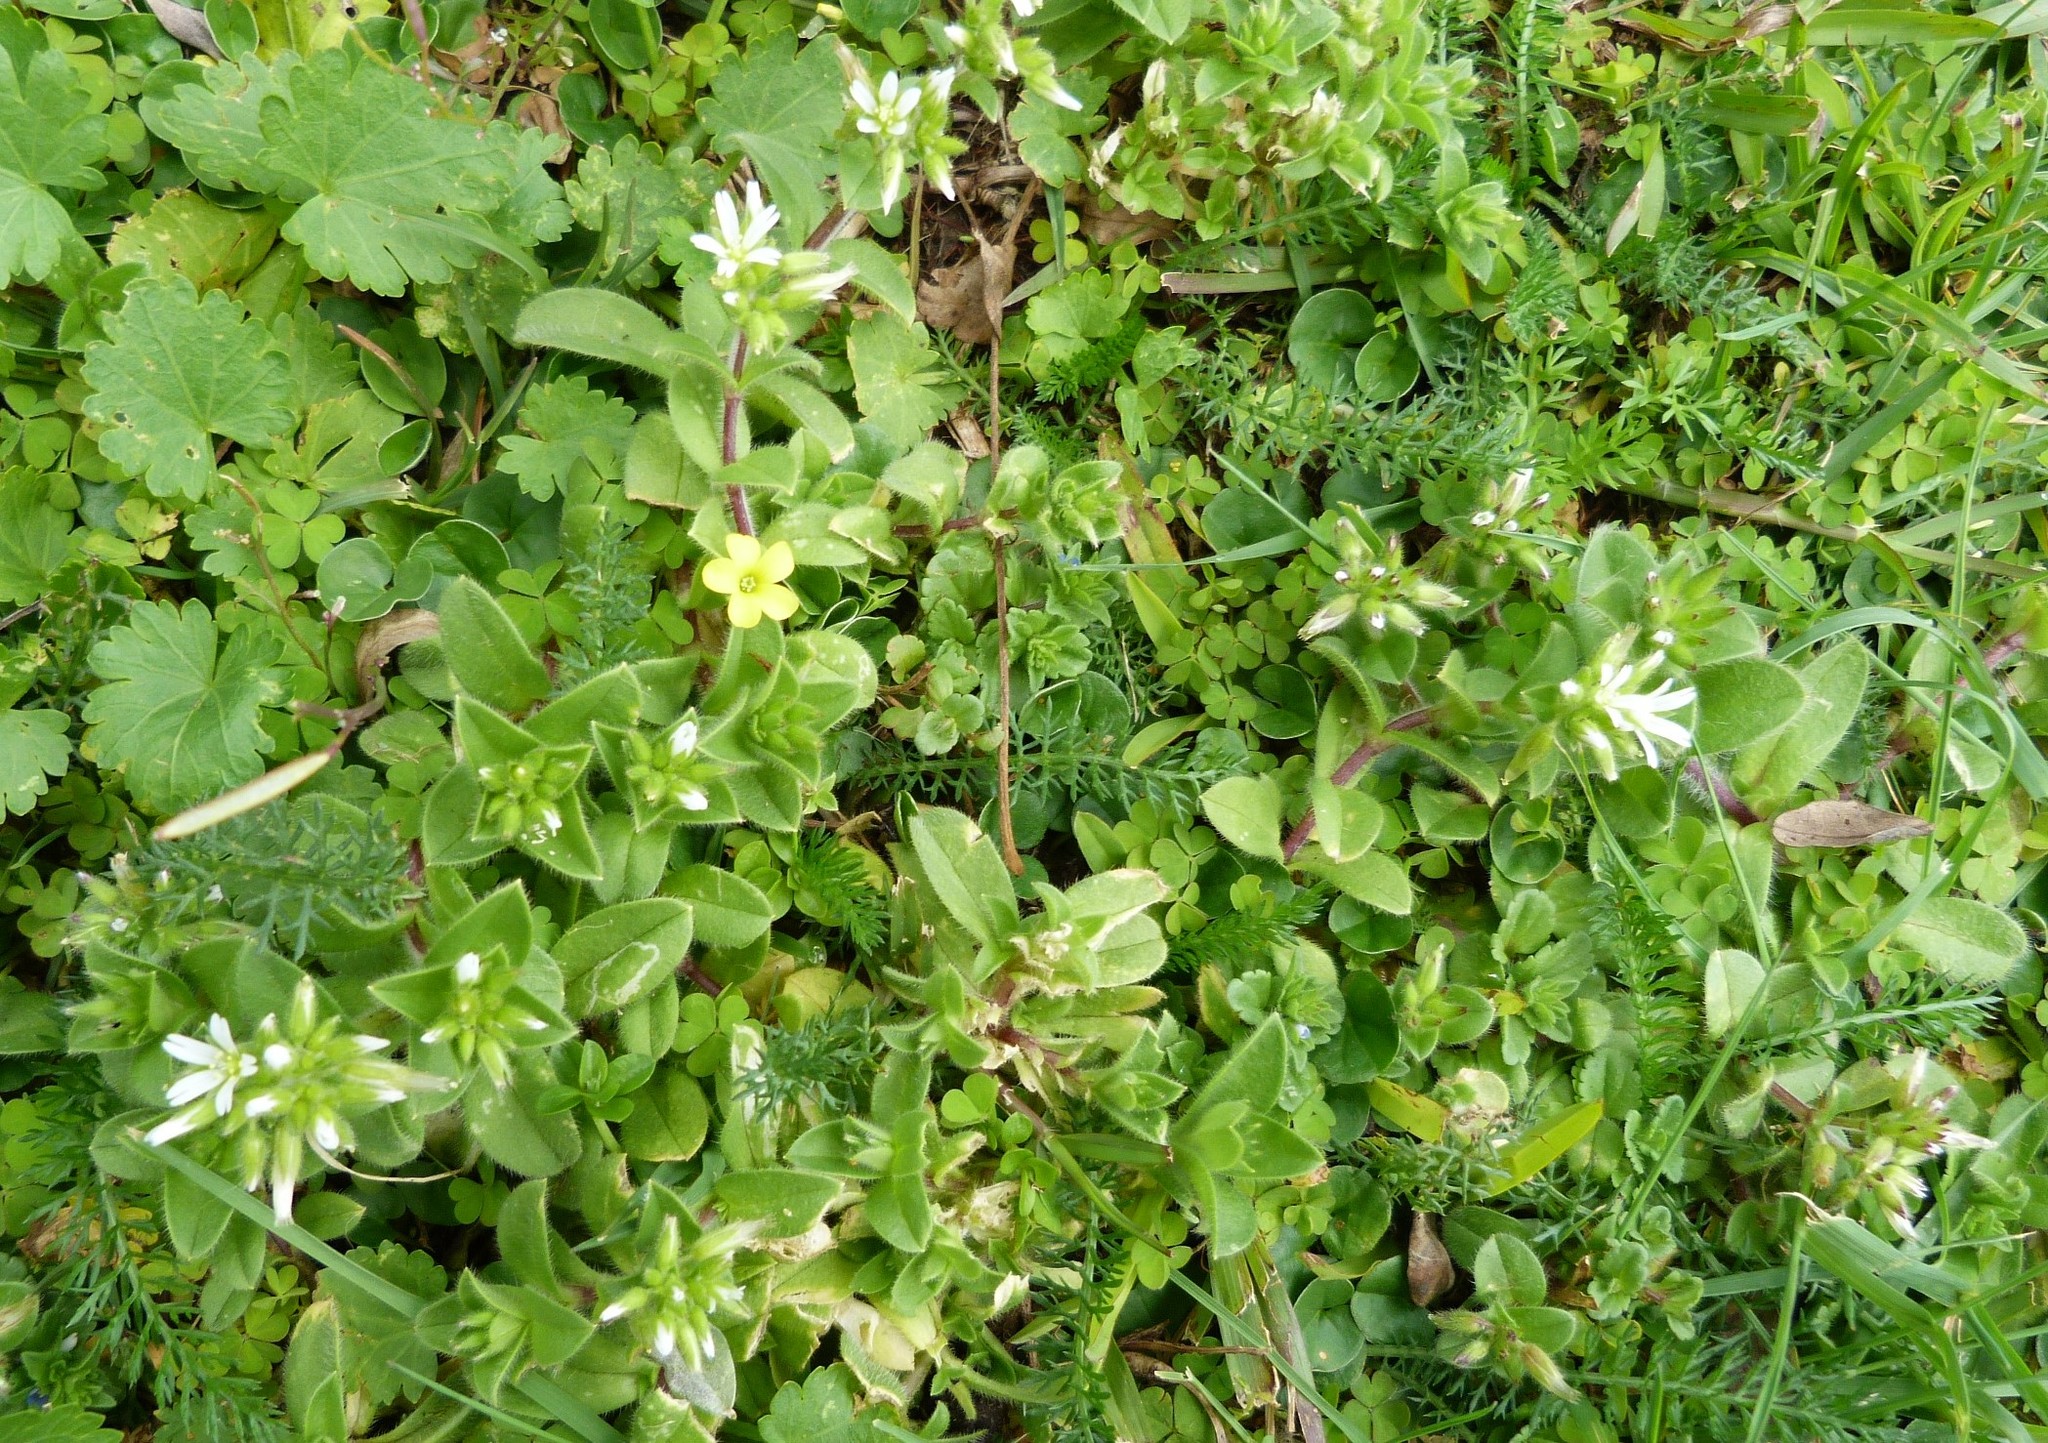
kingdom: Plantae
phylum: Tracheophyta
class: Magnoliopsida
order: Caryophyllales
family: Caryophyllaceae
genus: Cerastium
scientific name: Cerastium glomeratum
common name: Sticky chickweed
